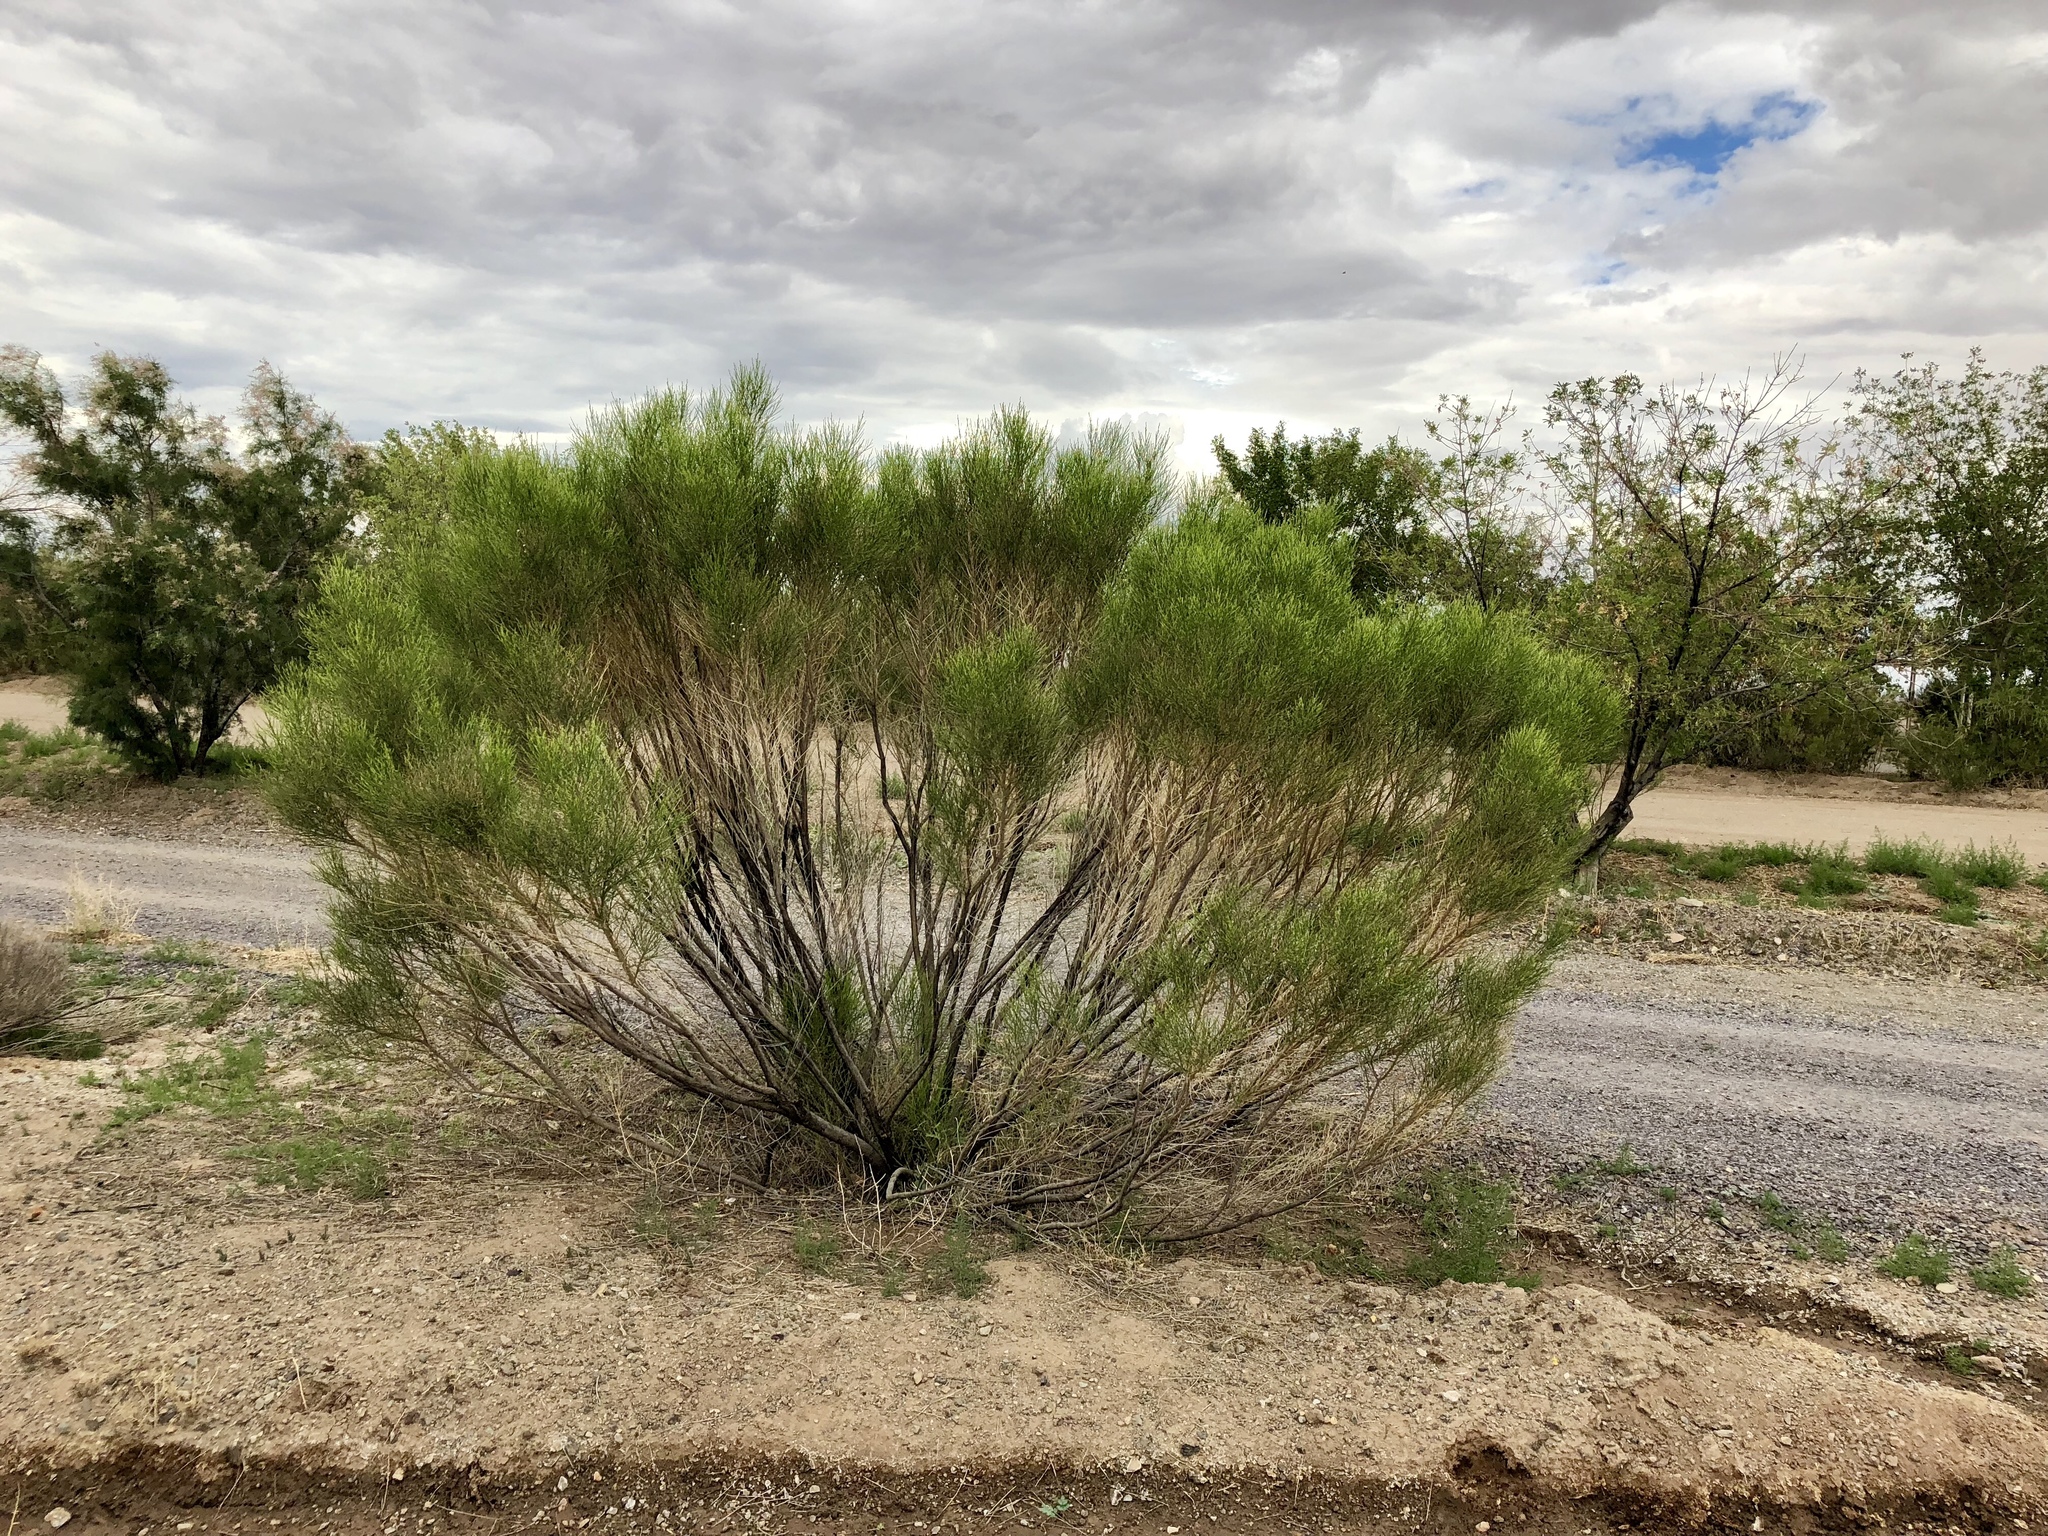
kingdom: Plantae
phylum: Tracheophyta
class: Magnoliopsida
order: Asterales
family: Asteraceae
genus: Baccharis
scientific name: Baccharis sarothroides
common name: Desert-broom
